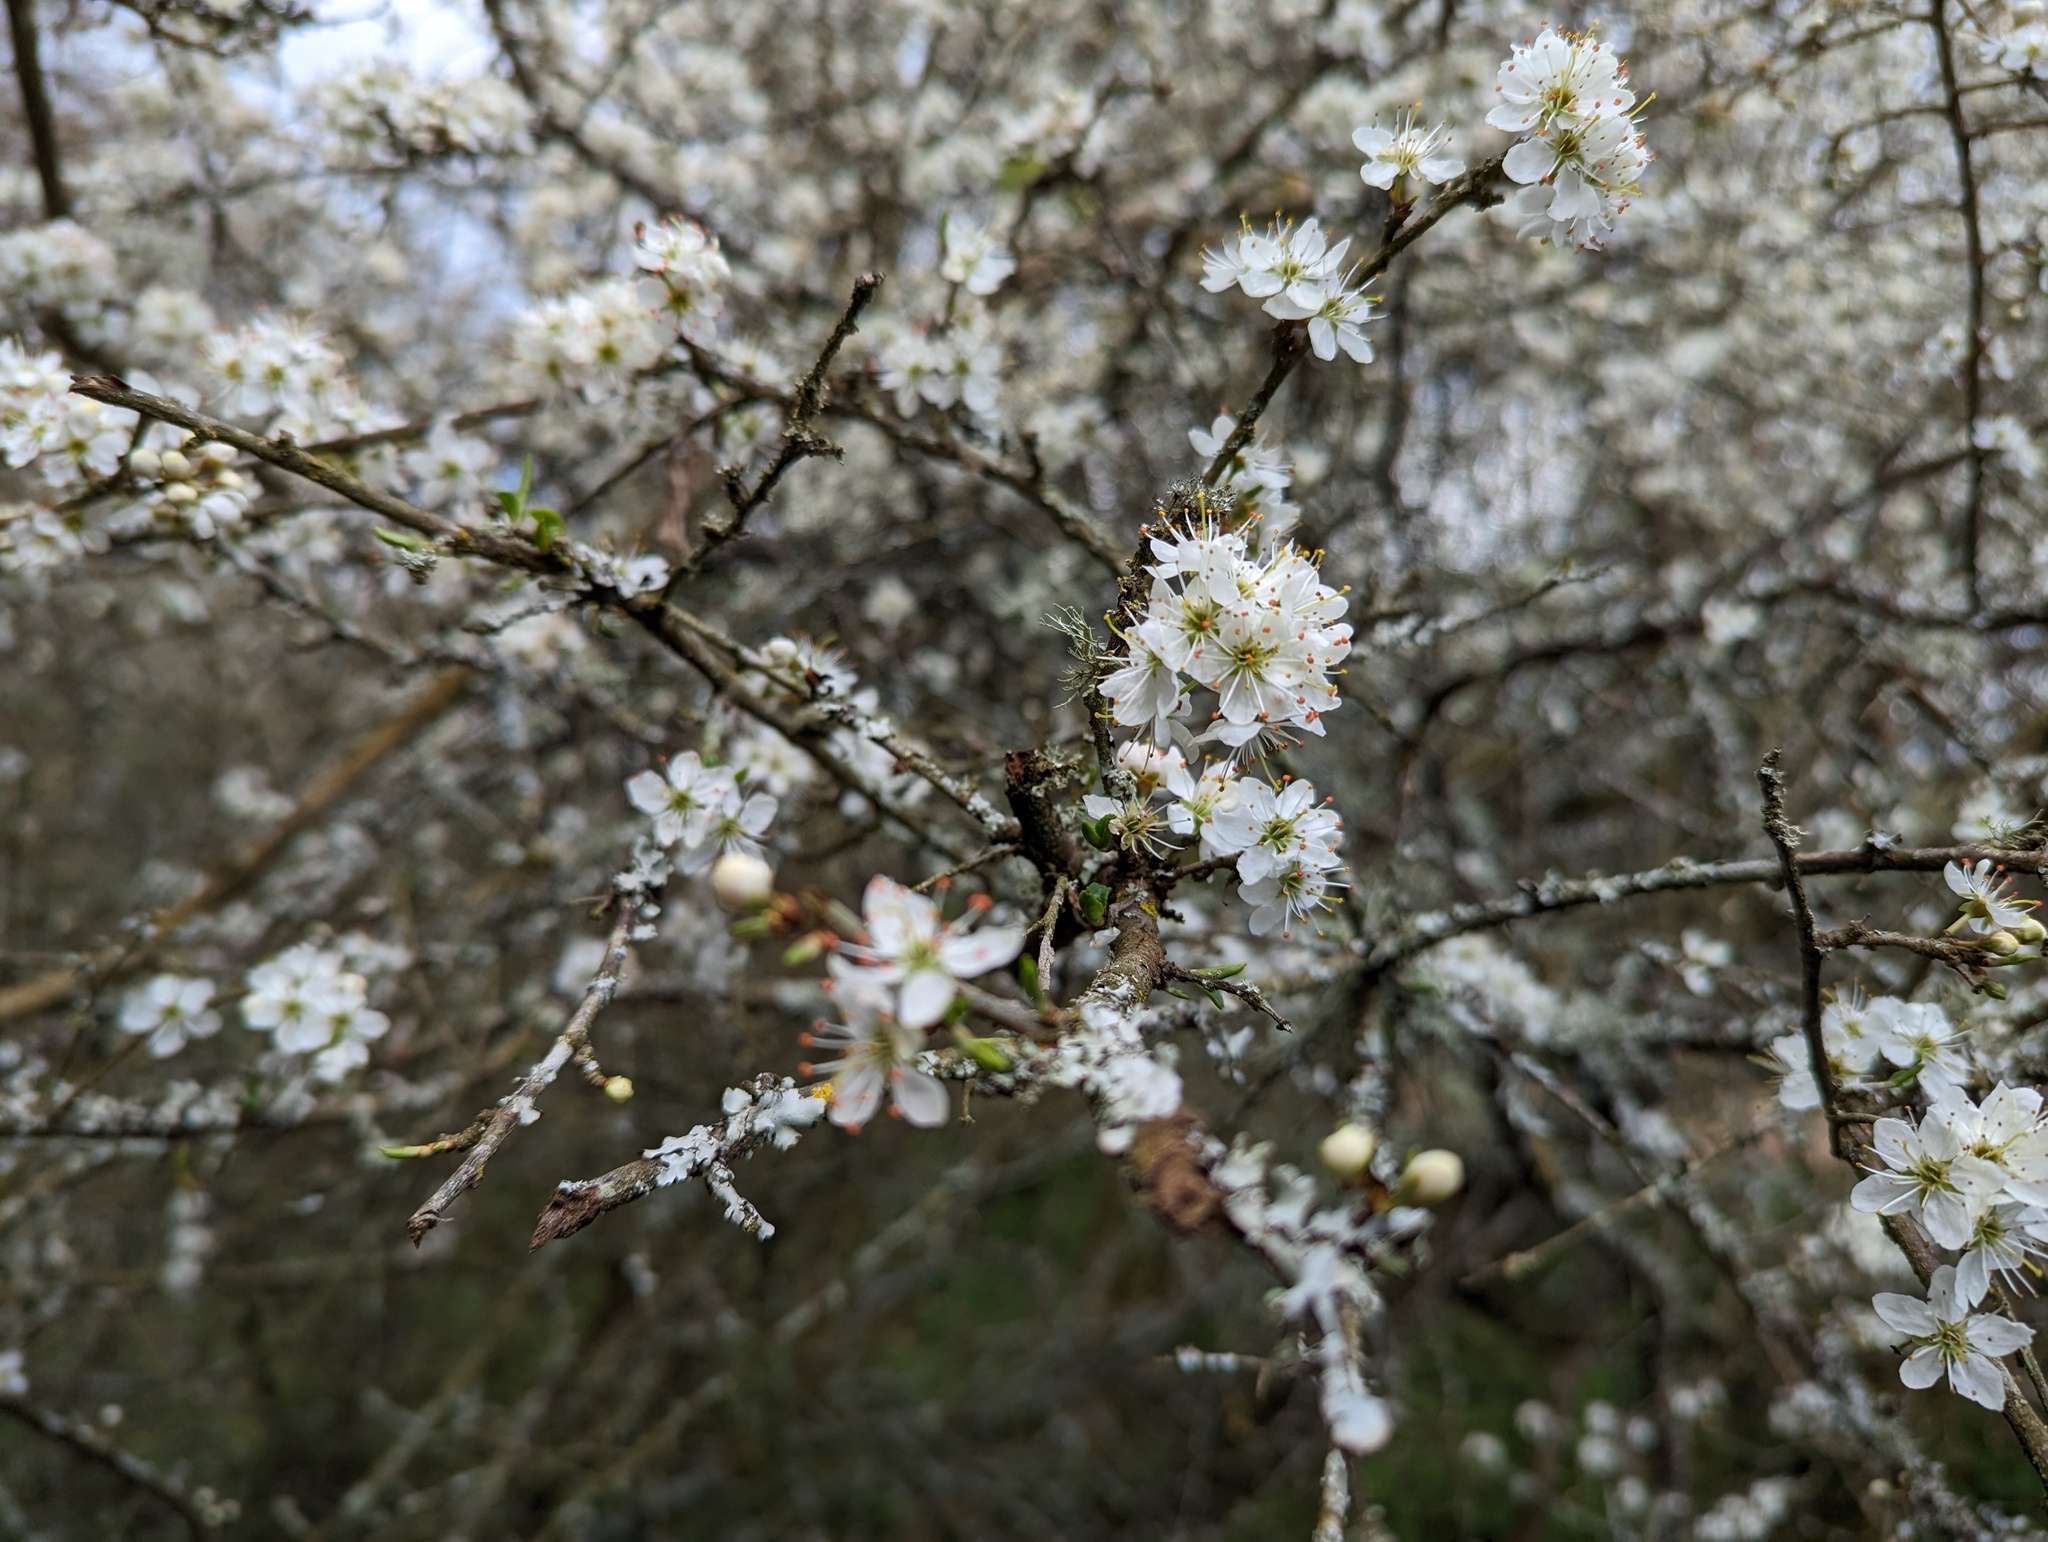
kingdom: Plantae
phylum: Tracheophyta
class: Magnoliopsida
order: Rosales
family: Rosaceae
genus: Prunus
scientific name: Prunus spinosa
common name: Blackthorn
